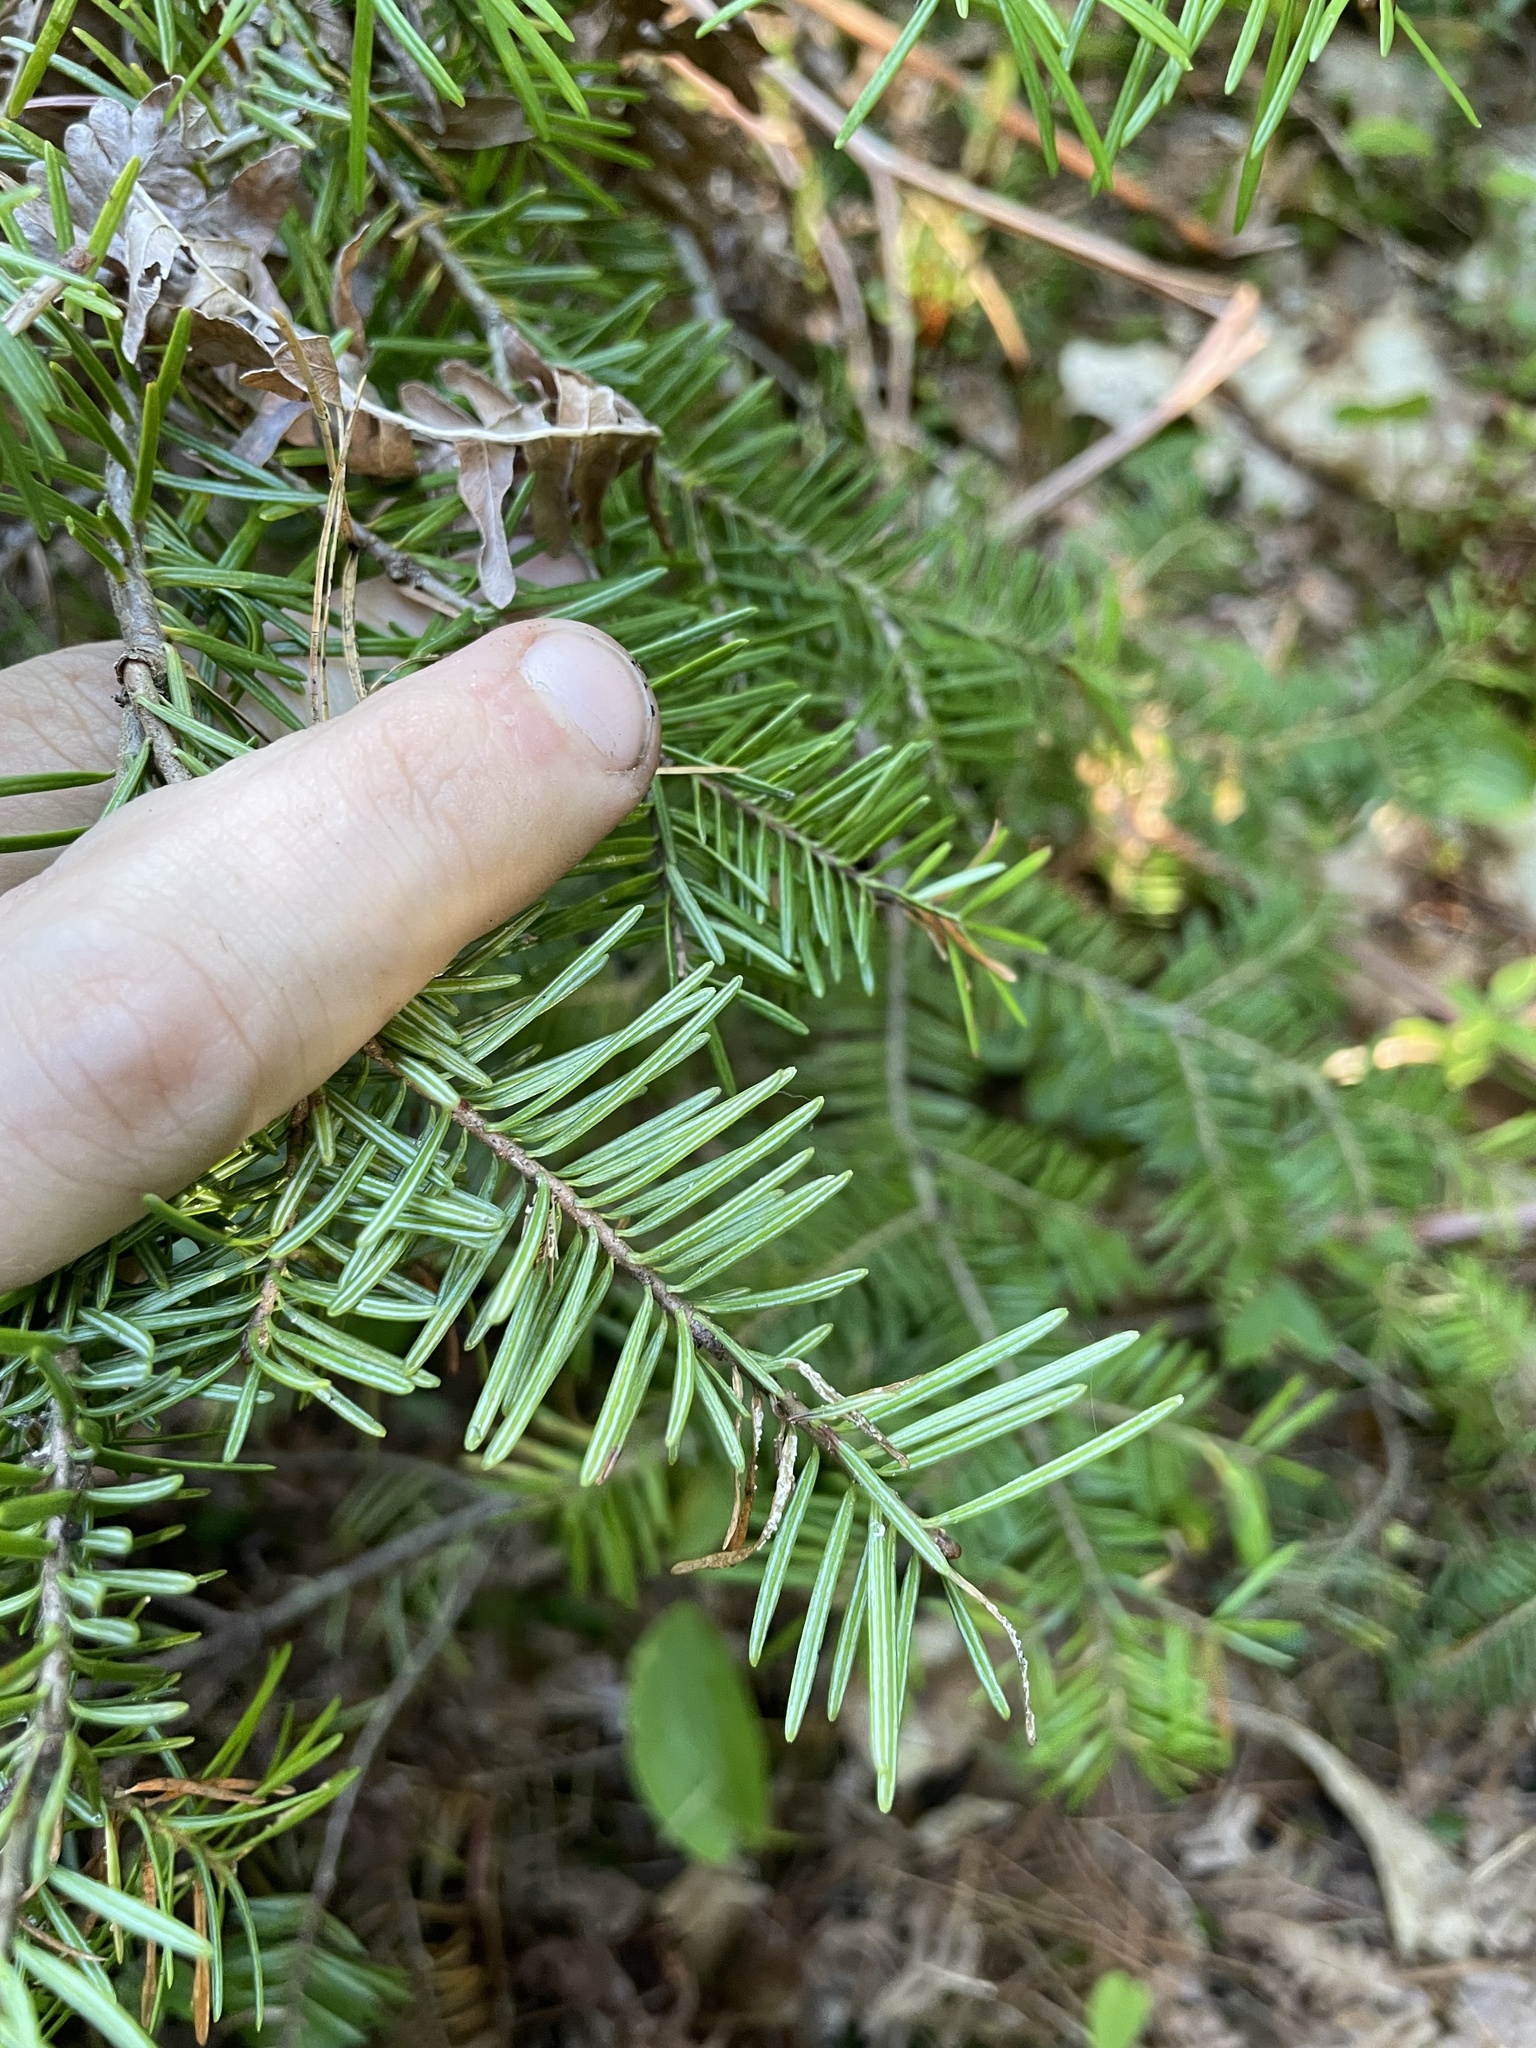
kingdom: Plantae
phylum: Tracheophyta
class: Pinopsida
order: Pinales
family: Pinaceae
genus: Abies
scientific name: Abies balsamea
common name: Balsam fir
